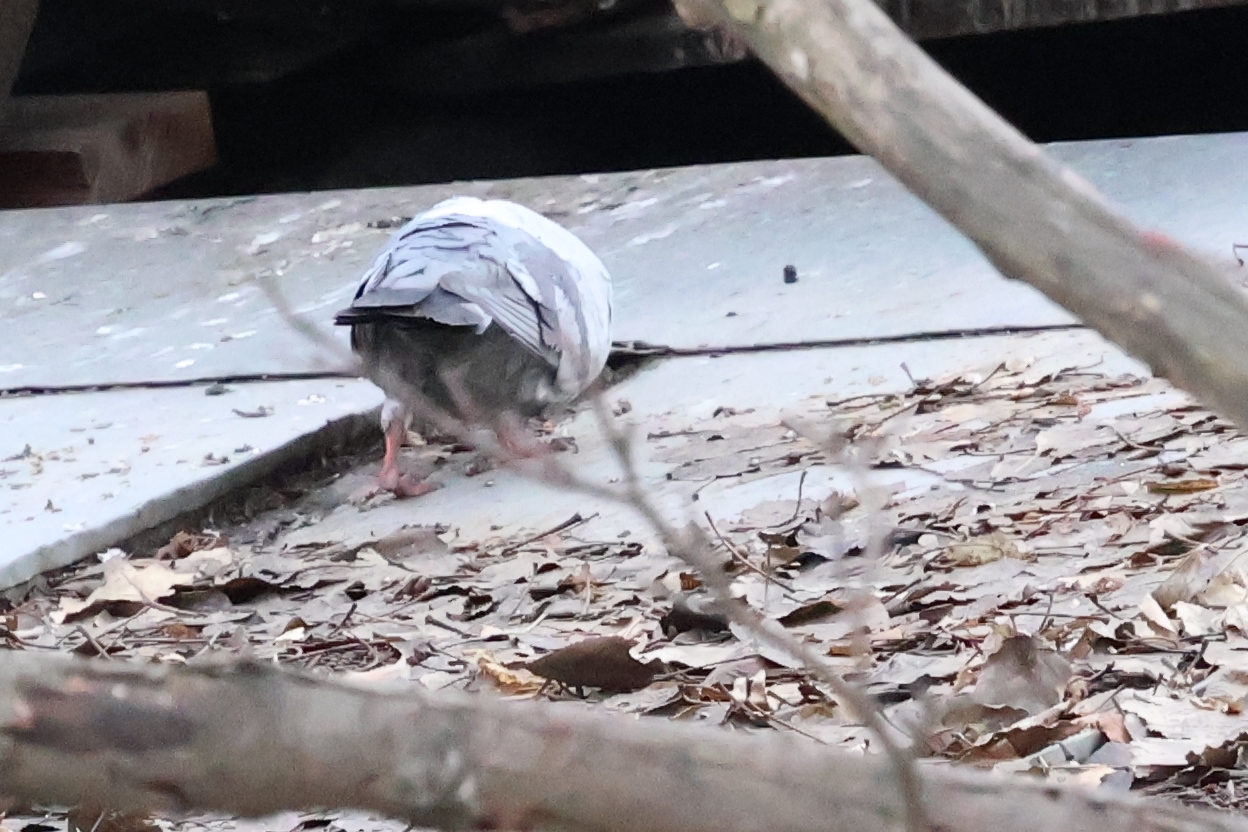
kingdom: Animalia
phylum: Chordata
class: Aves
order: Columbiformes
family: Columbidae
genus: Columba
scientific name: Columba livia
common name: Rock pigeon
